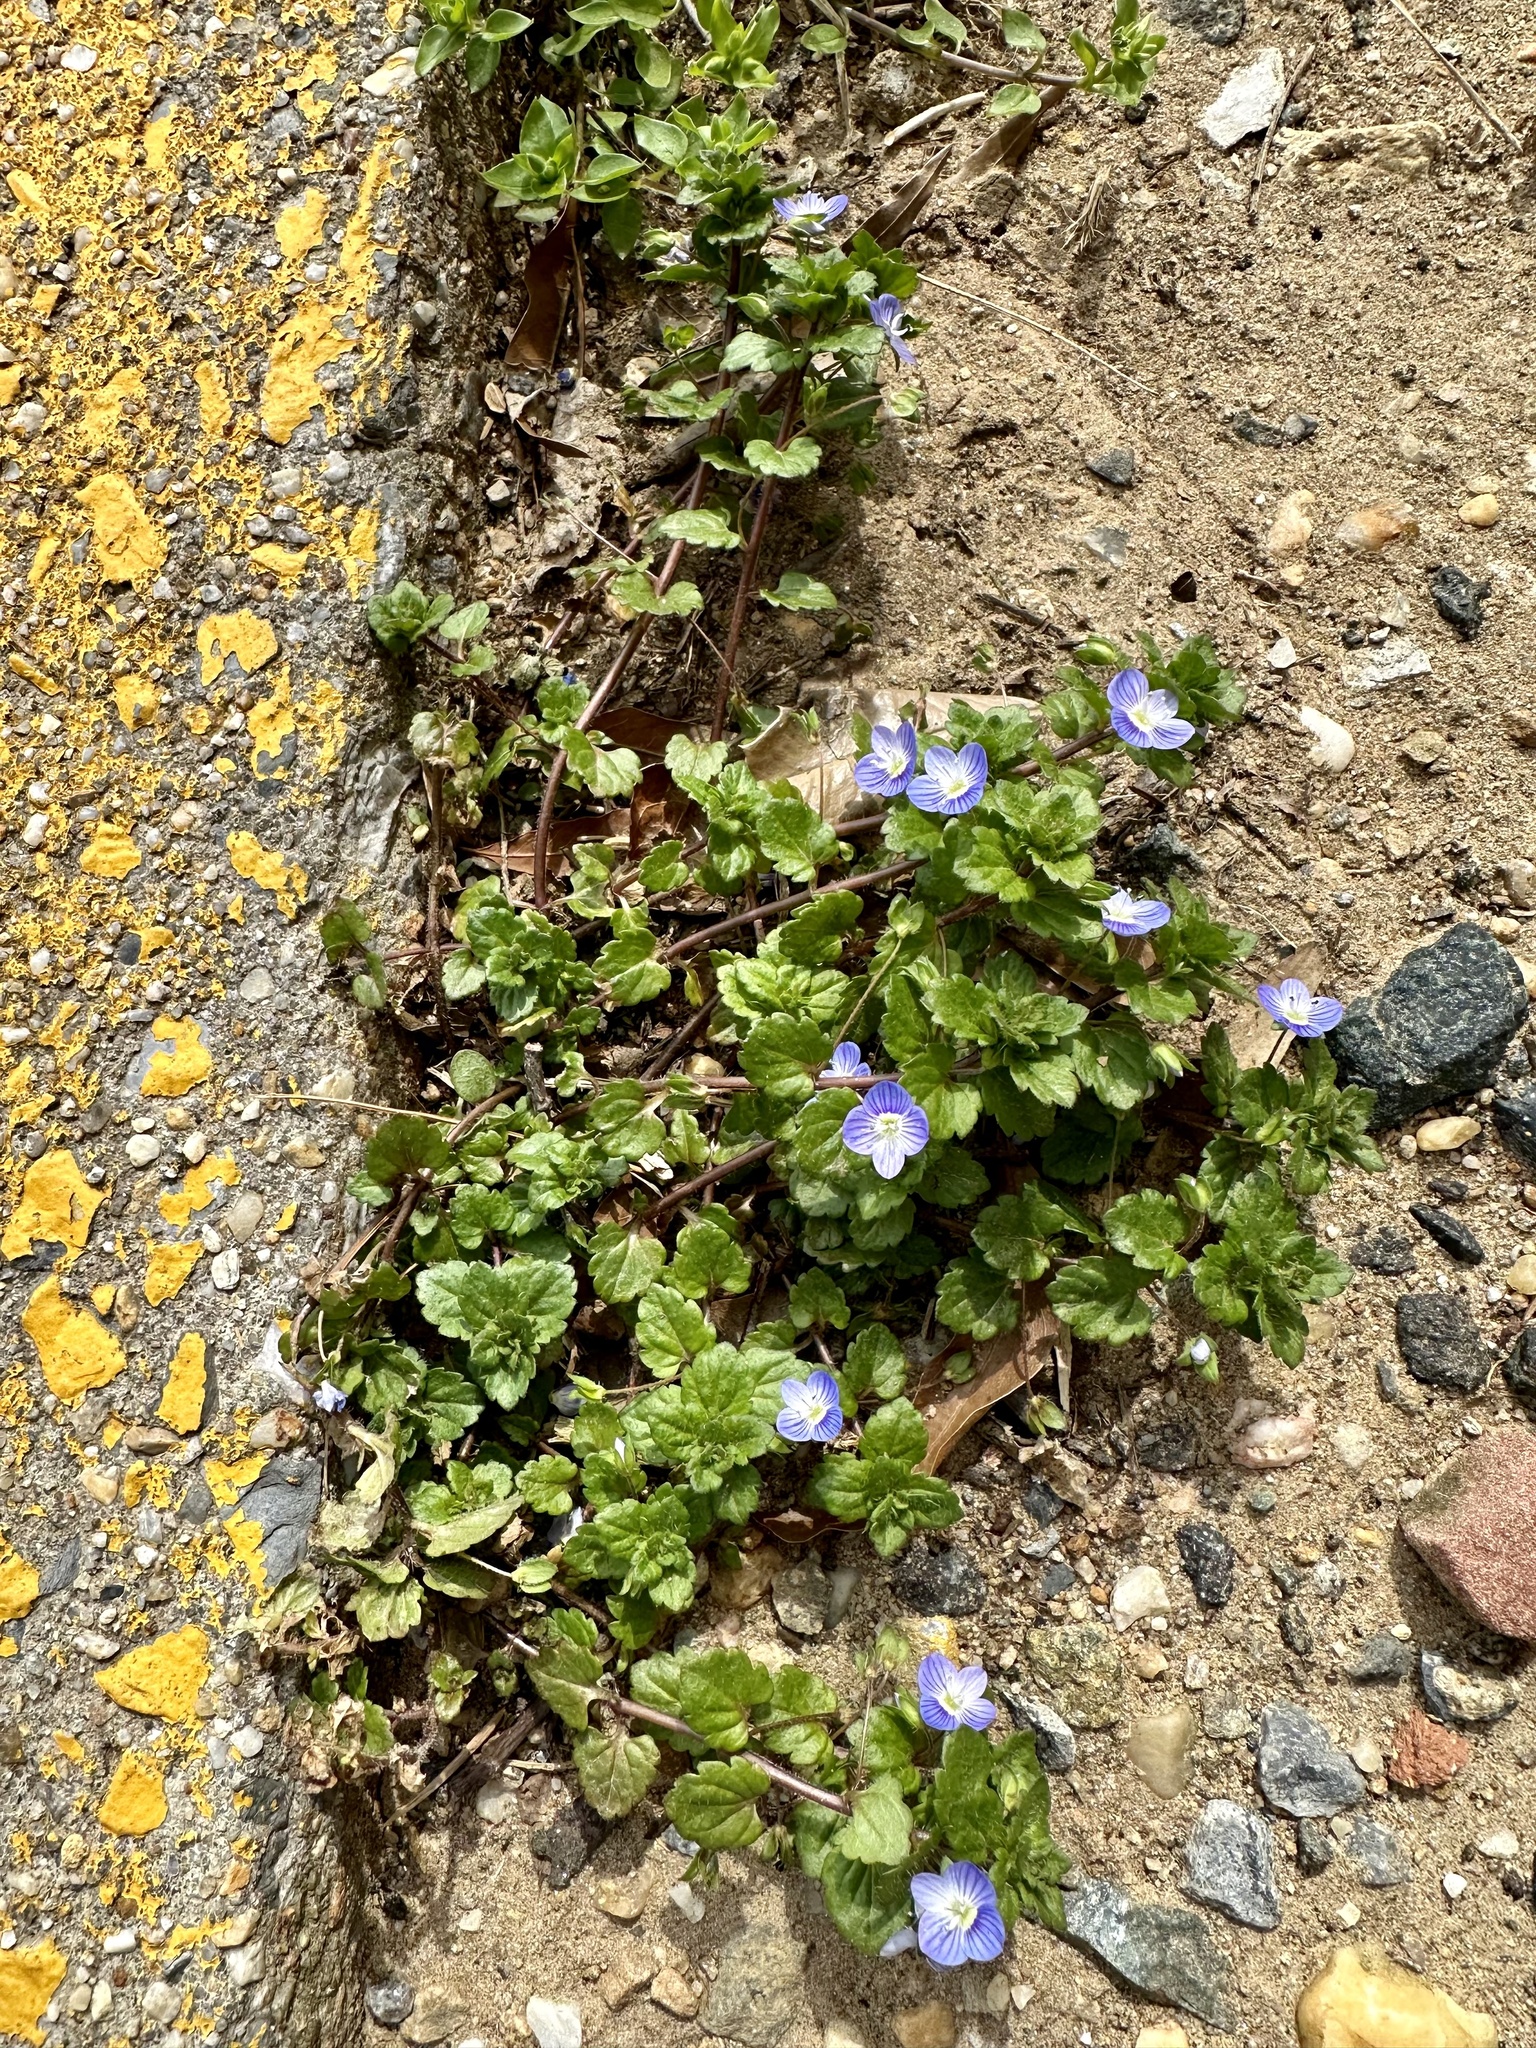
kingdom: Plantae
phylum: Tracheophyta
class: Magnoliopsida
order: Lamiales
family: Plantaginaceae
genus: Veronica
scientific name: Veronica persica
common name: Common field-speedwell
